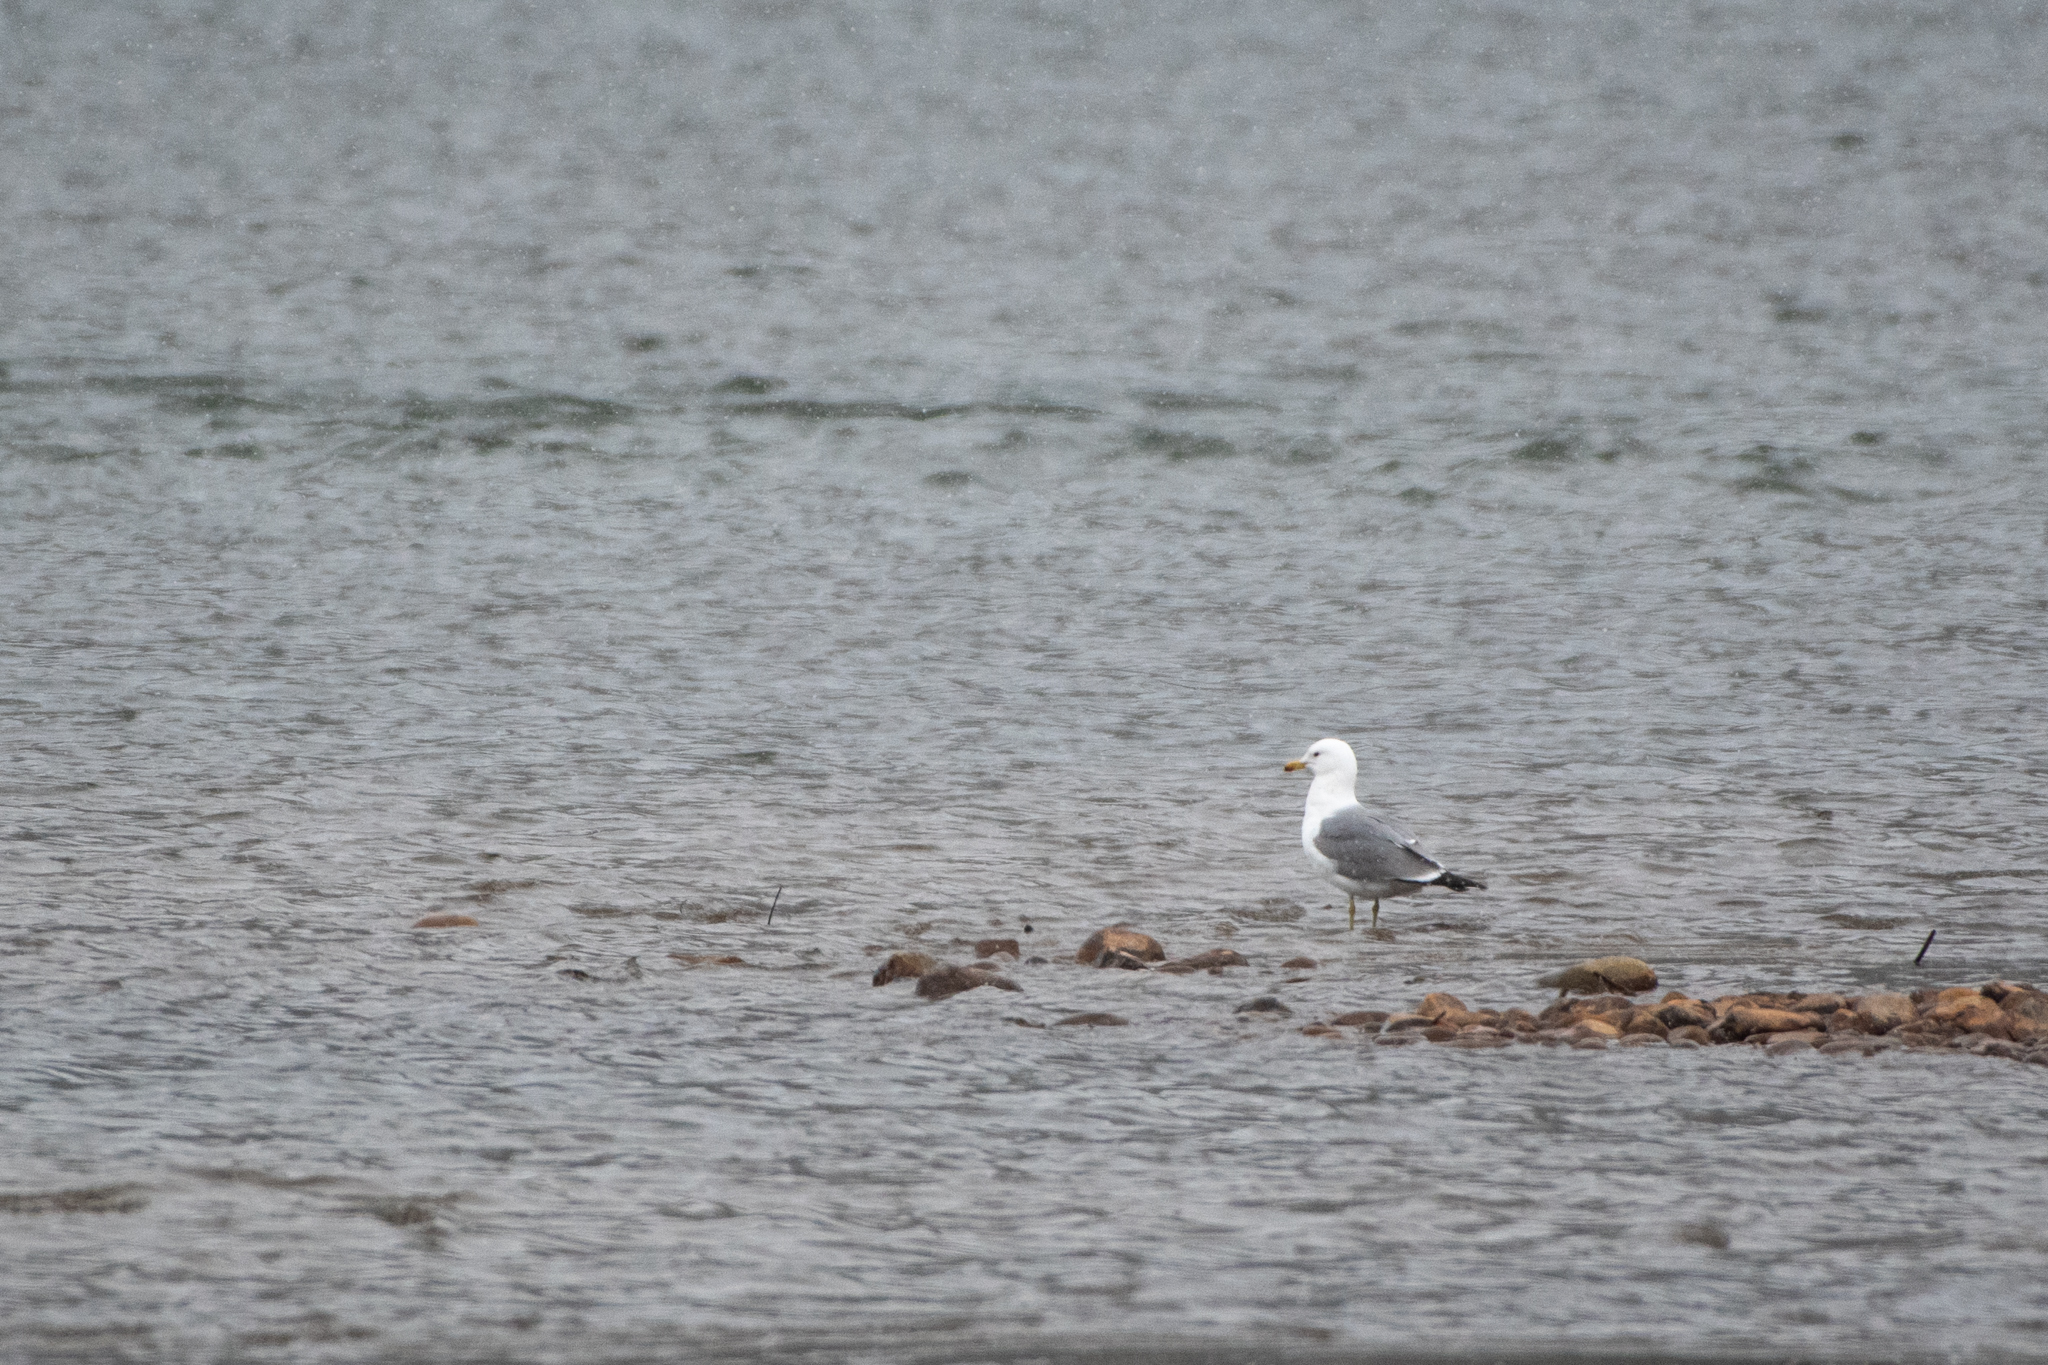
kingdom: Animalia
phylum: Chordata
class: Aves
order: Charadriiformes
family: Laridae
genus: Larus
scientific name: Larus californicus
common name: California gull
